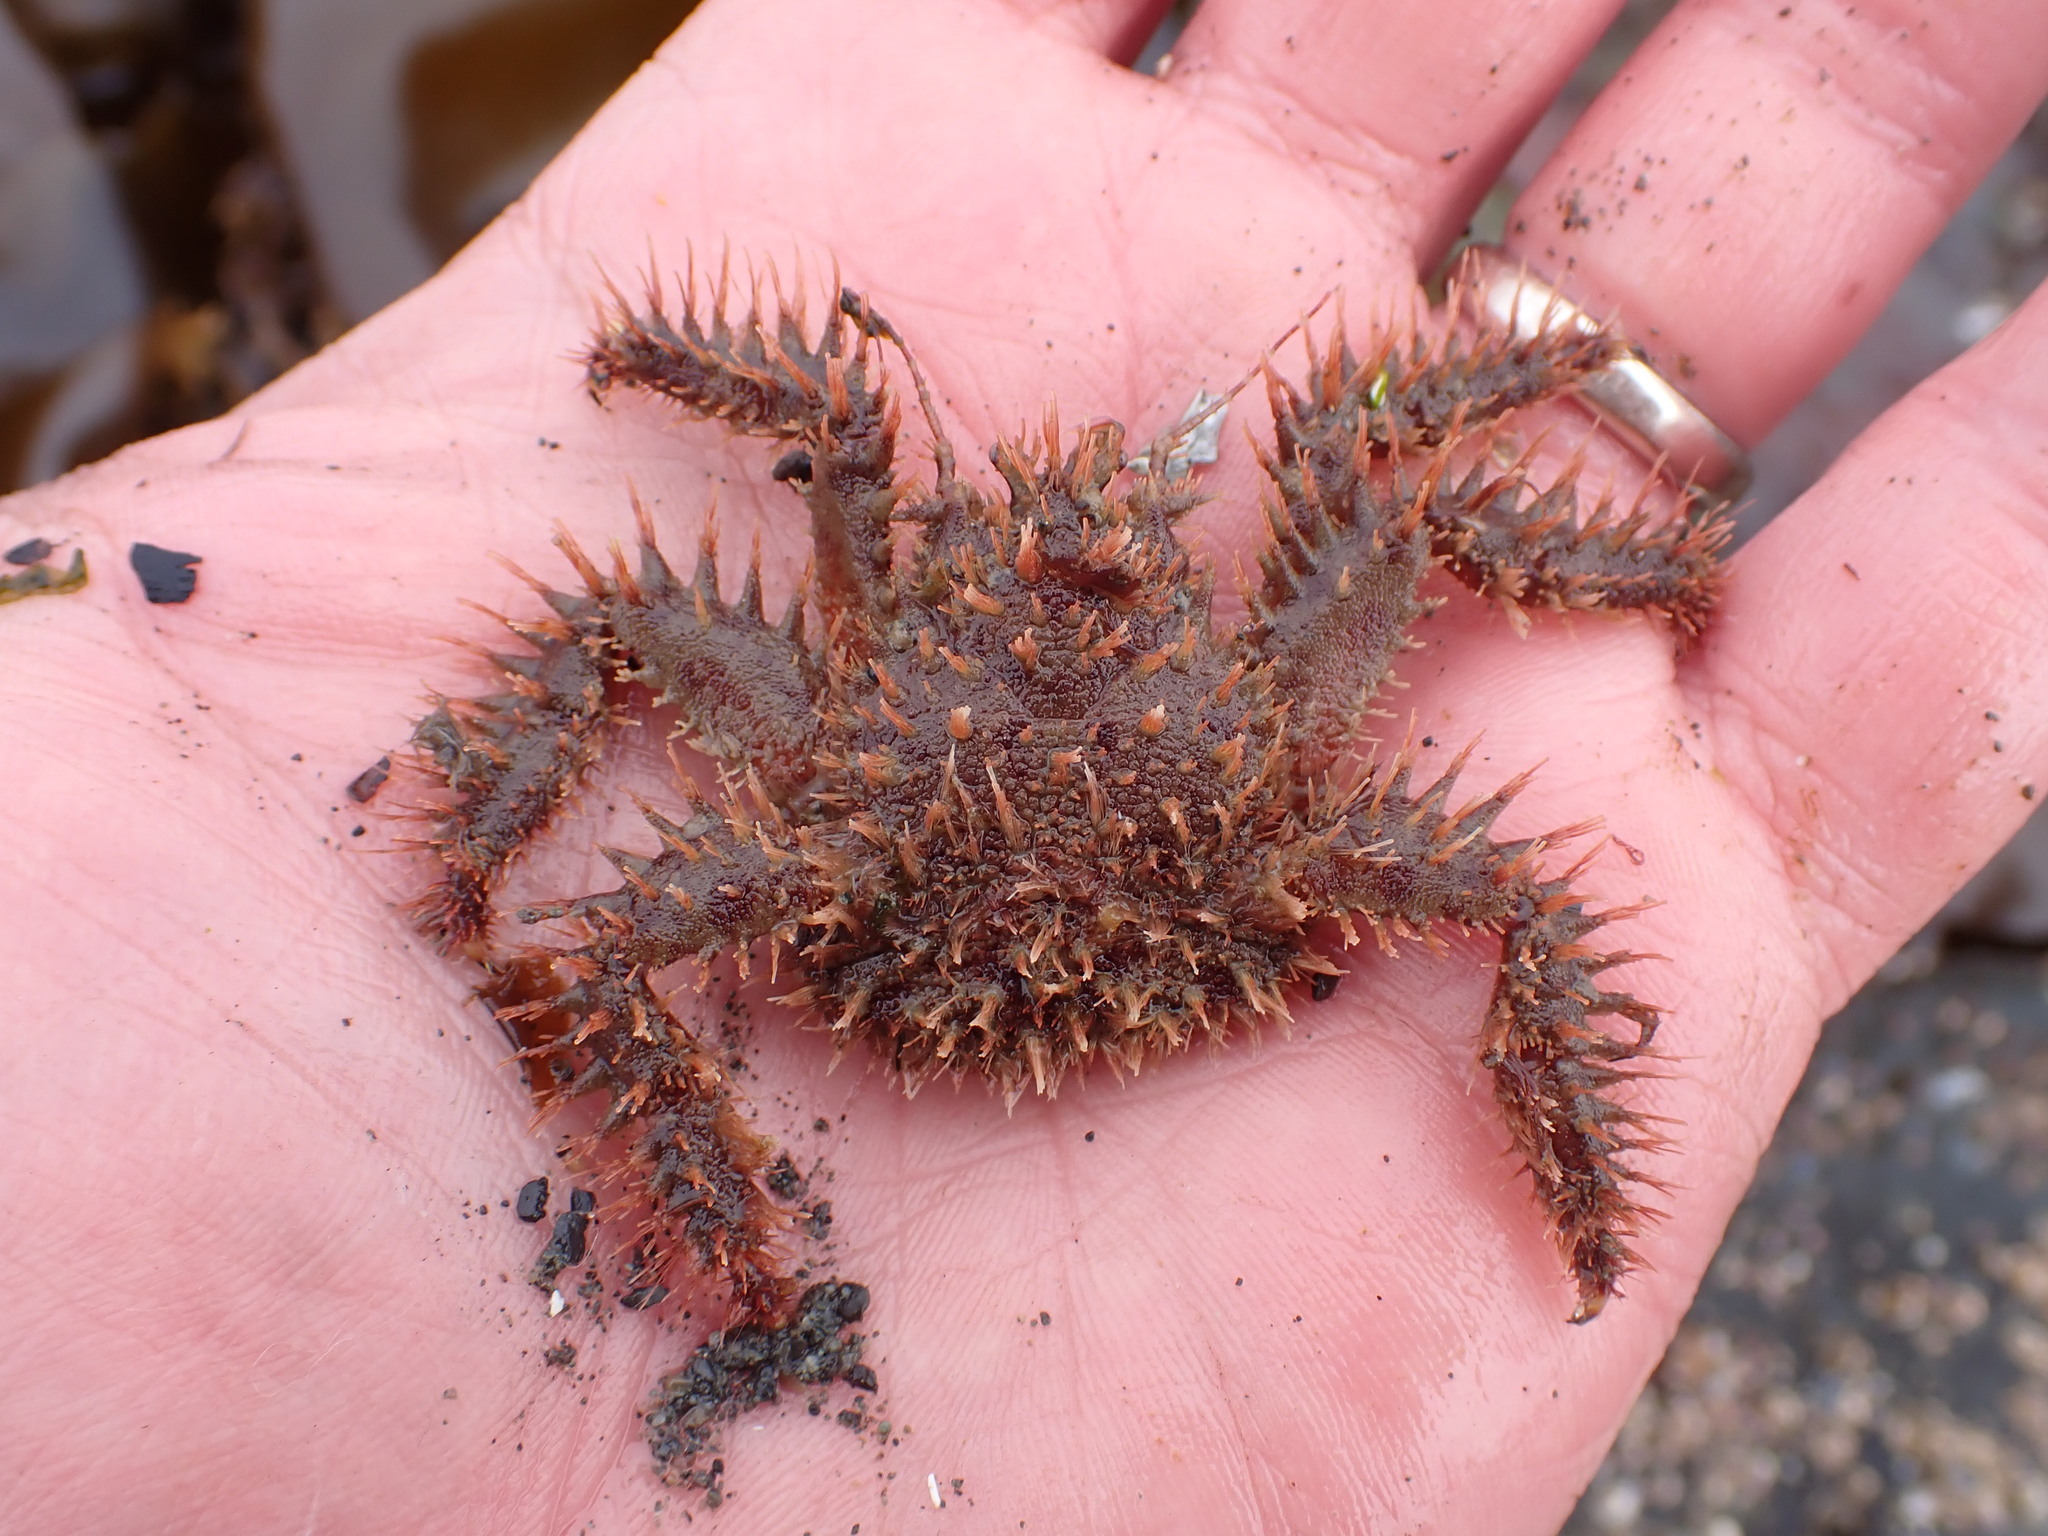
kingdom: Animalia
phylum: Arthropoda
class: Malacostraca
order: Decapoda
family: Hapalogastridae
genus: Hapalogaster
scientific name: Hapalogaster mertensii
